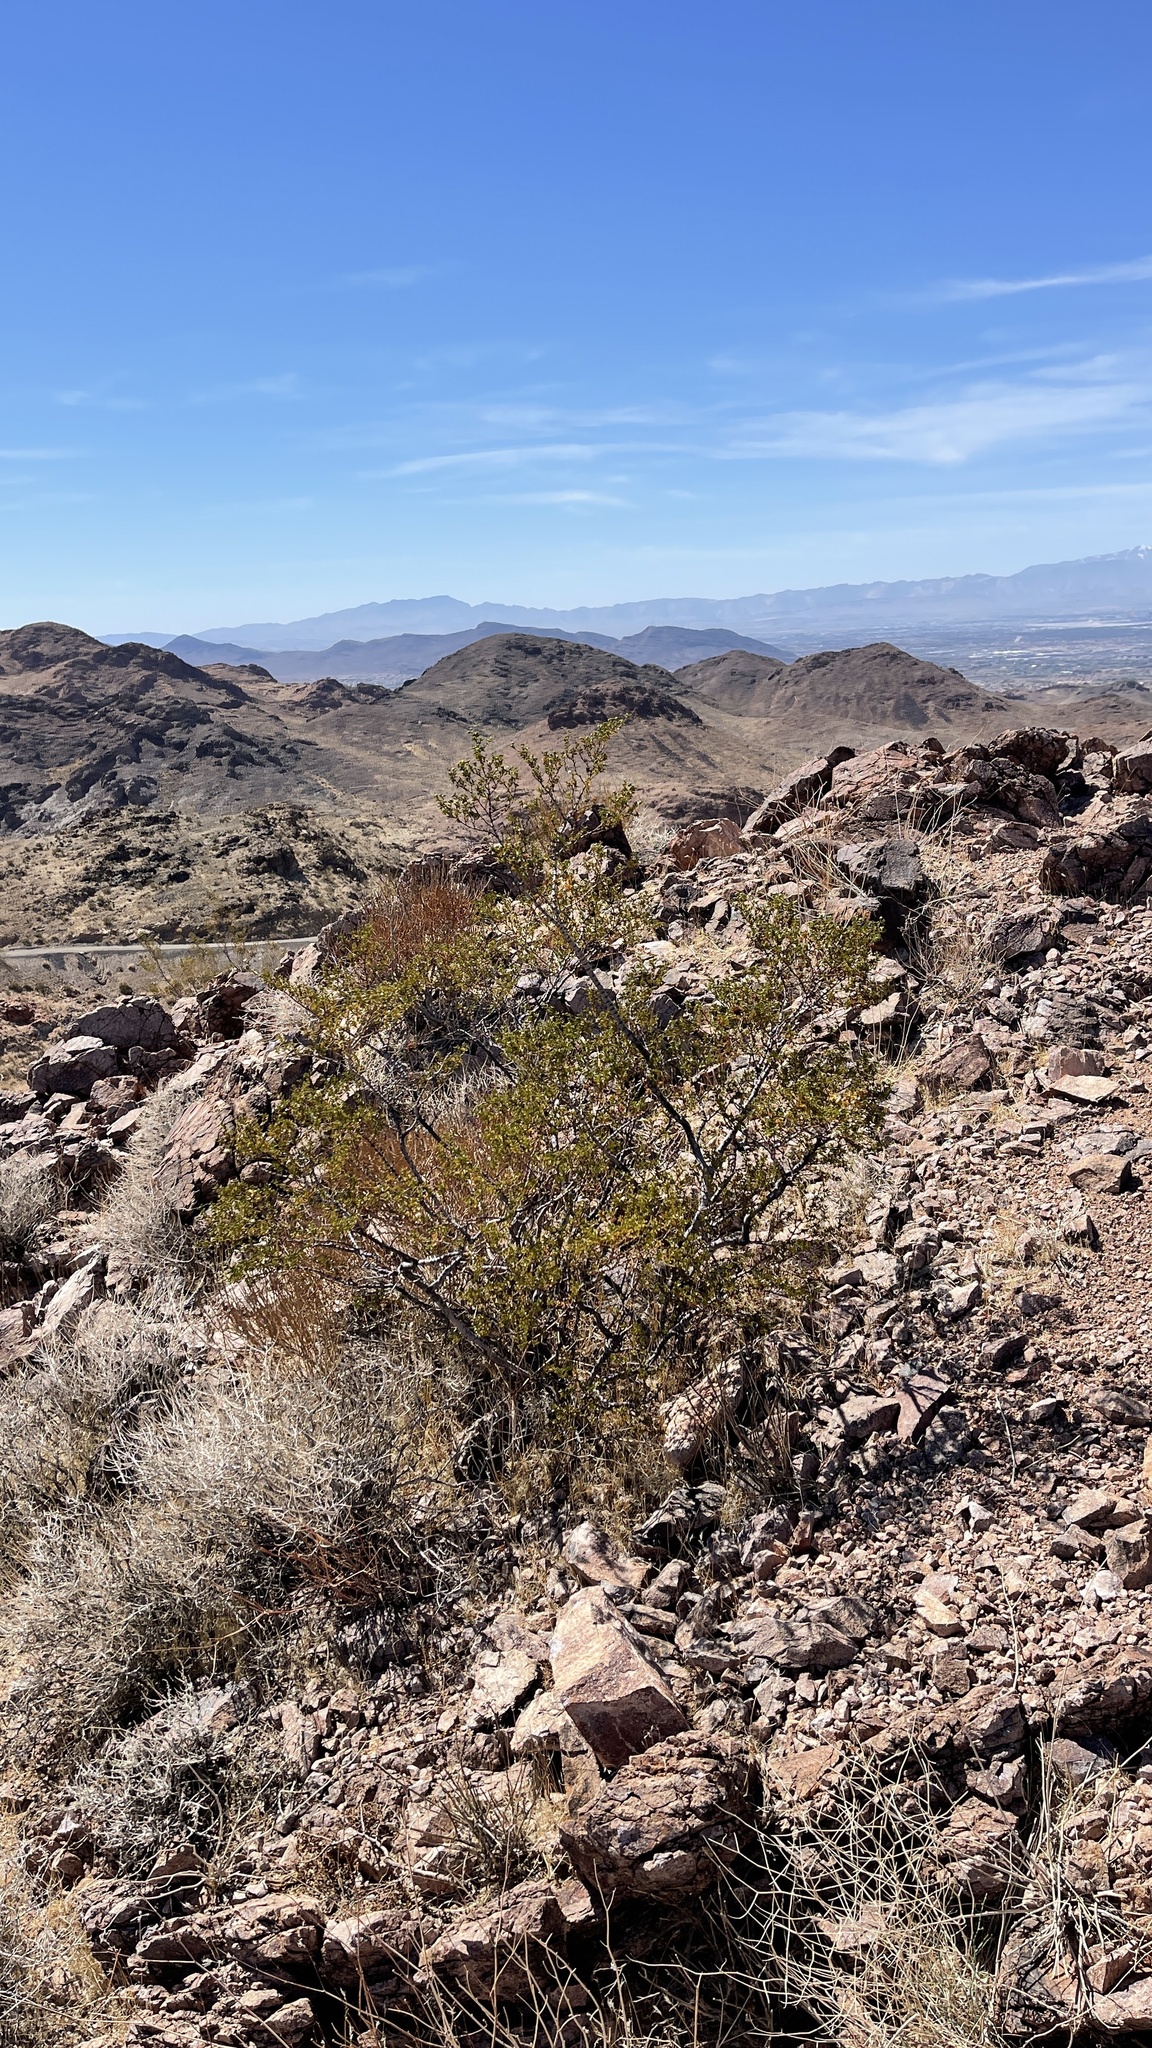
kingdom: Plantae
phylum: Tracheophyta
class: Magnoliopsida
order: Zygophyllales
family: Zygophyllaceae
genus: Larrea
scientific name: Larrea tridentata
